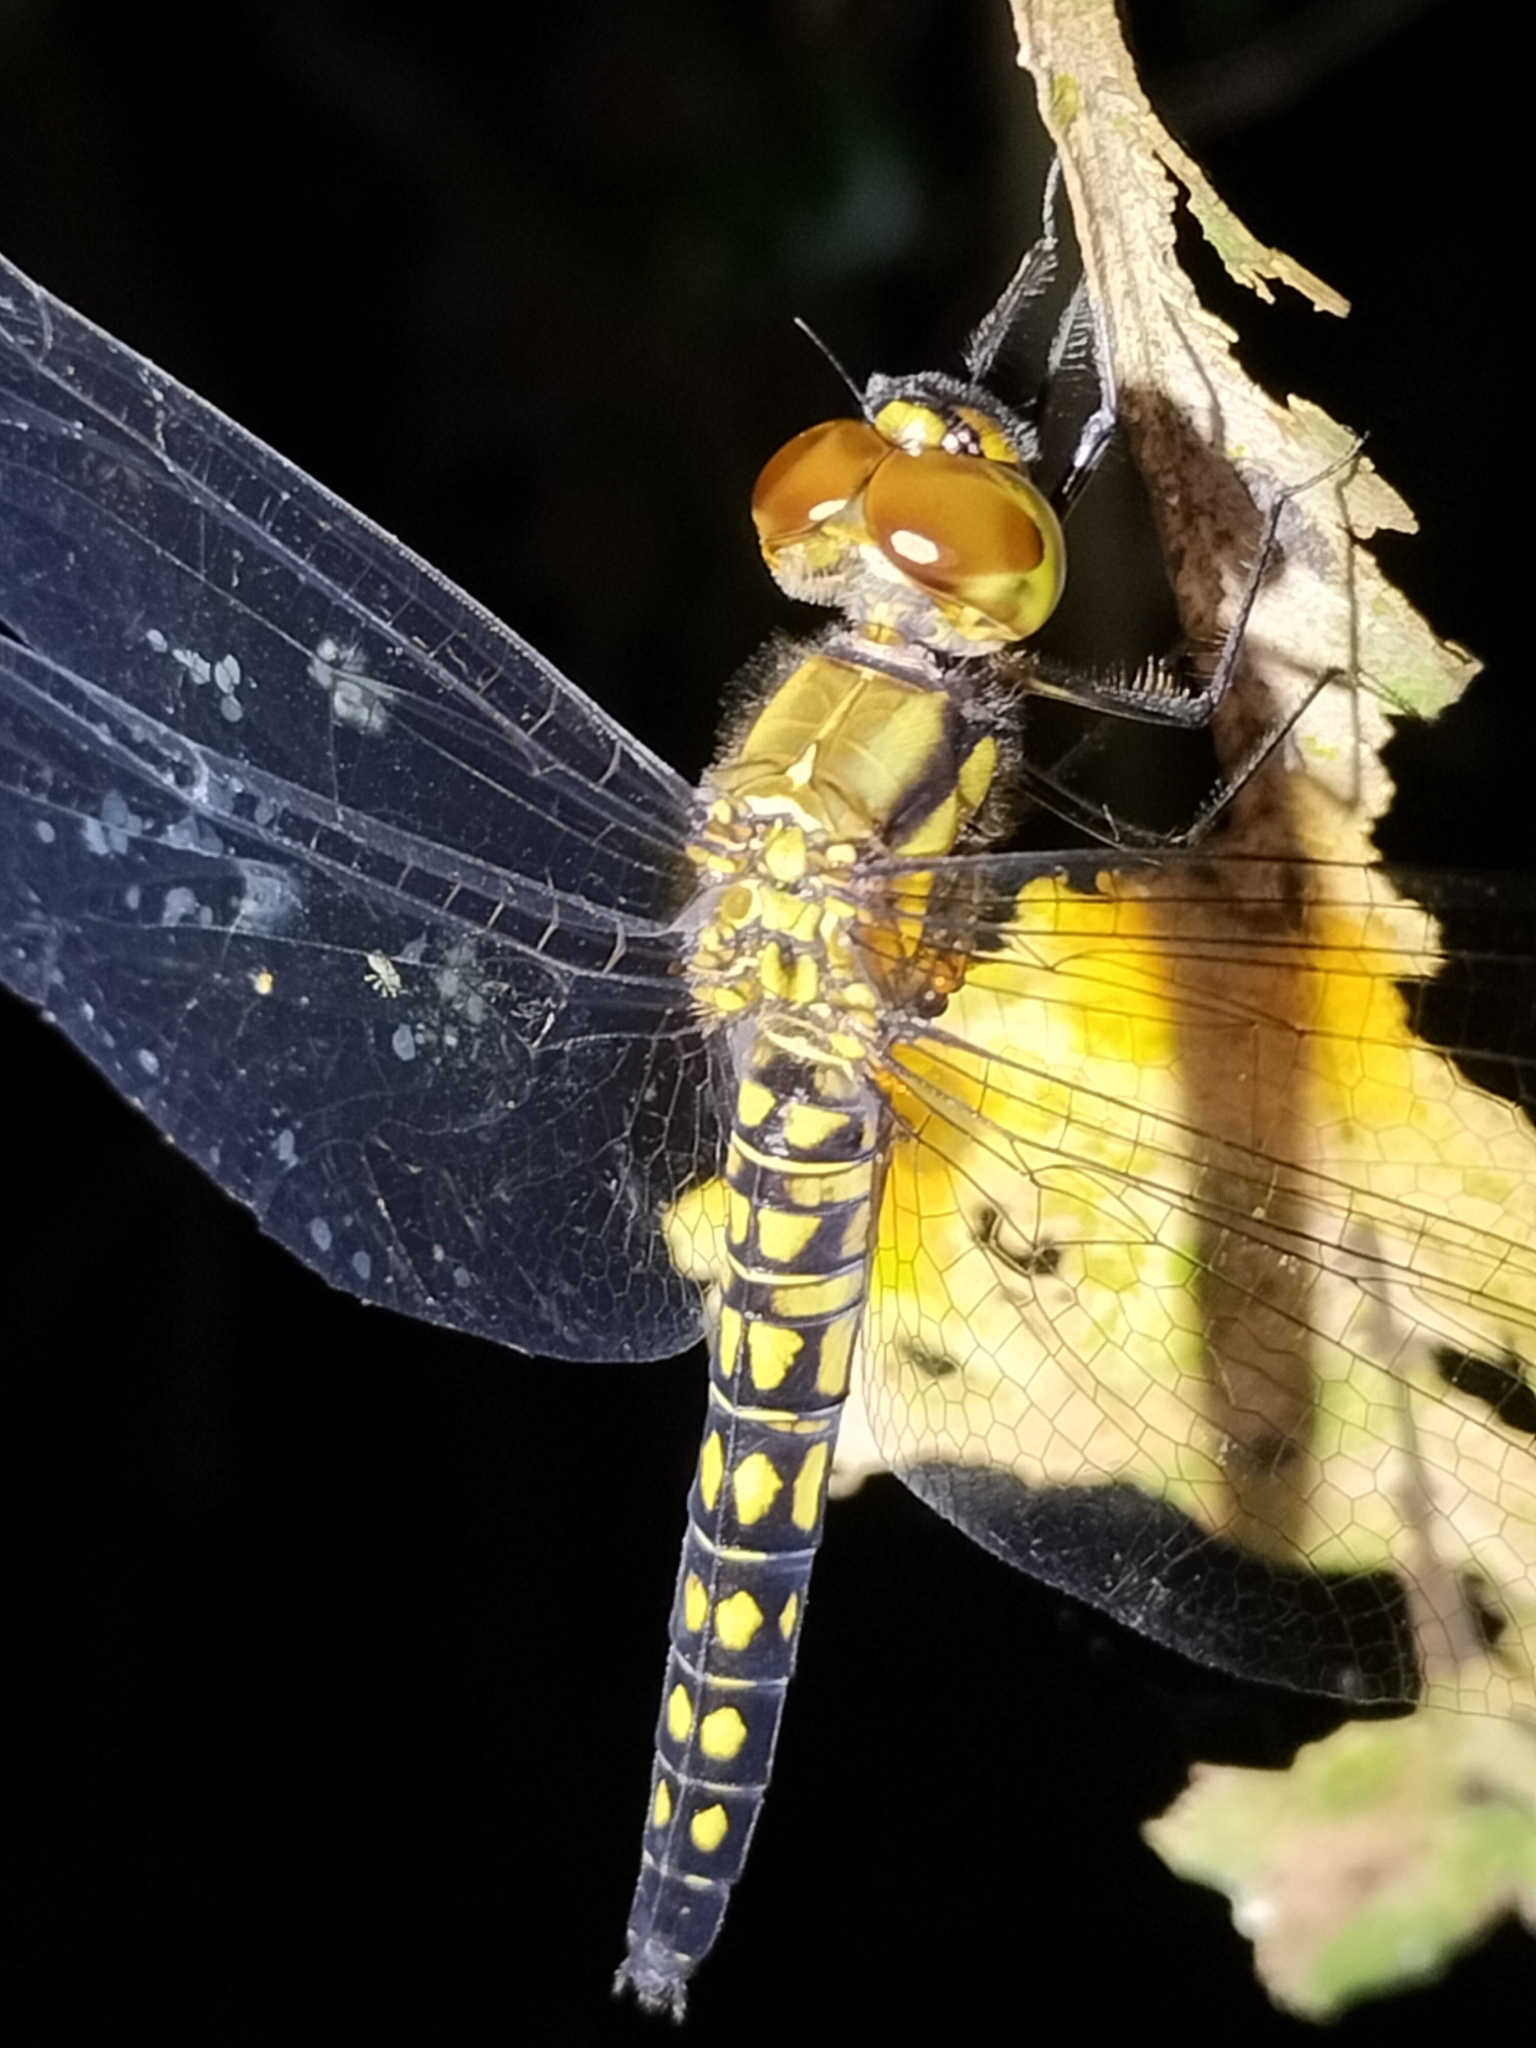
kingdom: Animalia
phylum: Arthropoda
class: Insecta
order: Odonata
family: Libellulidae
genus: Hydrobasileus
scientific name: Hydrobasileus brevistylus
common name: Water prince
